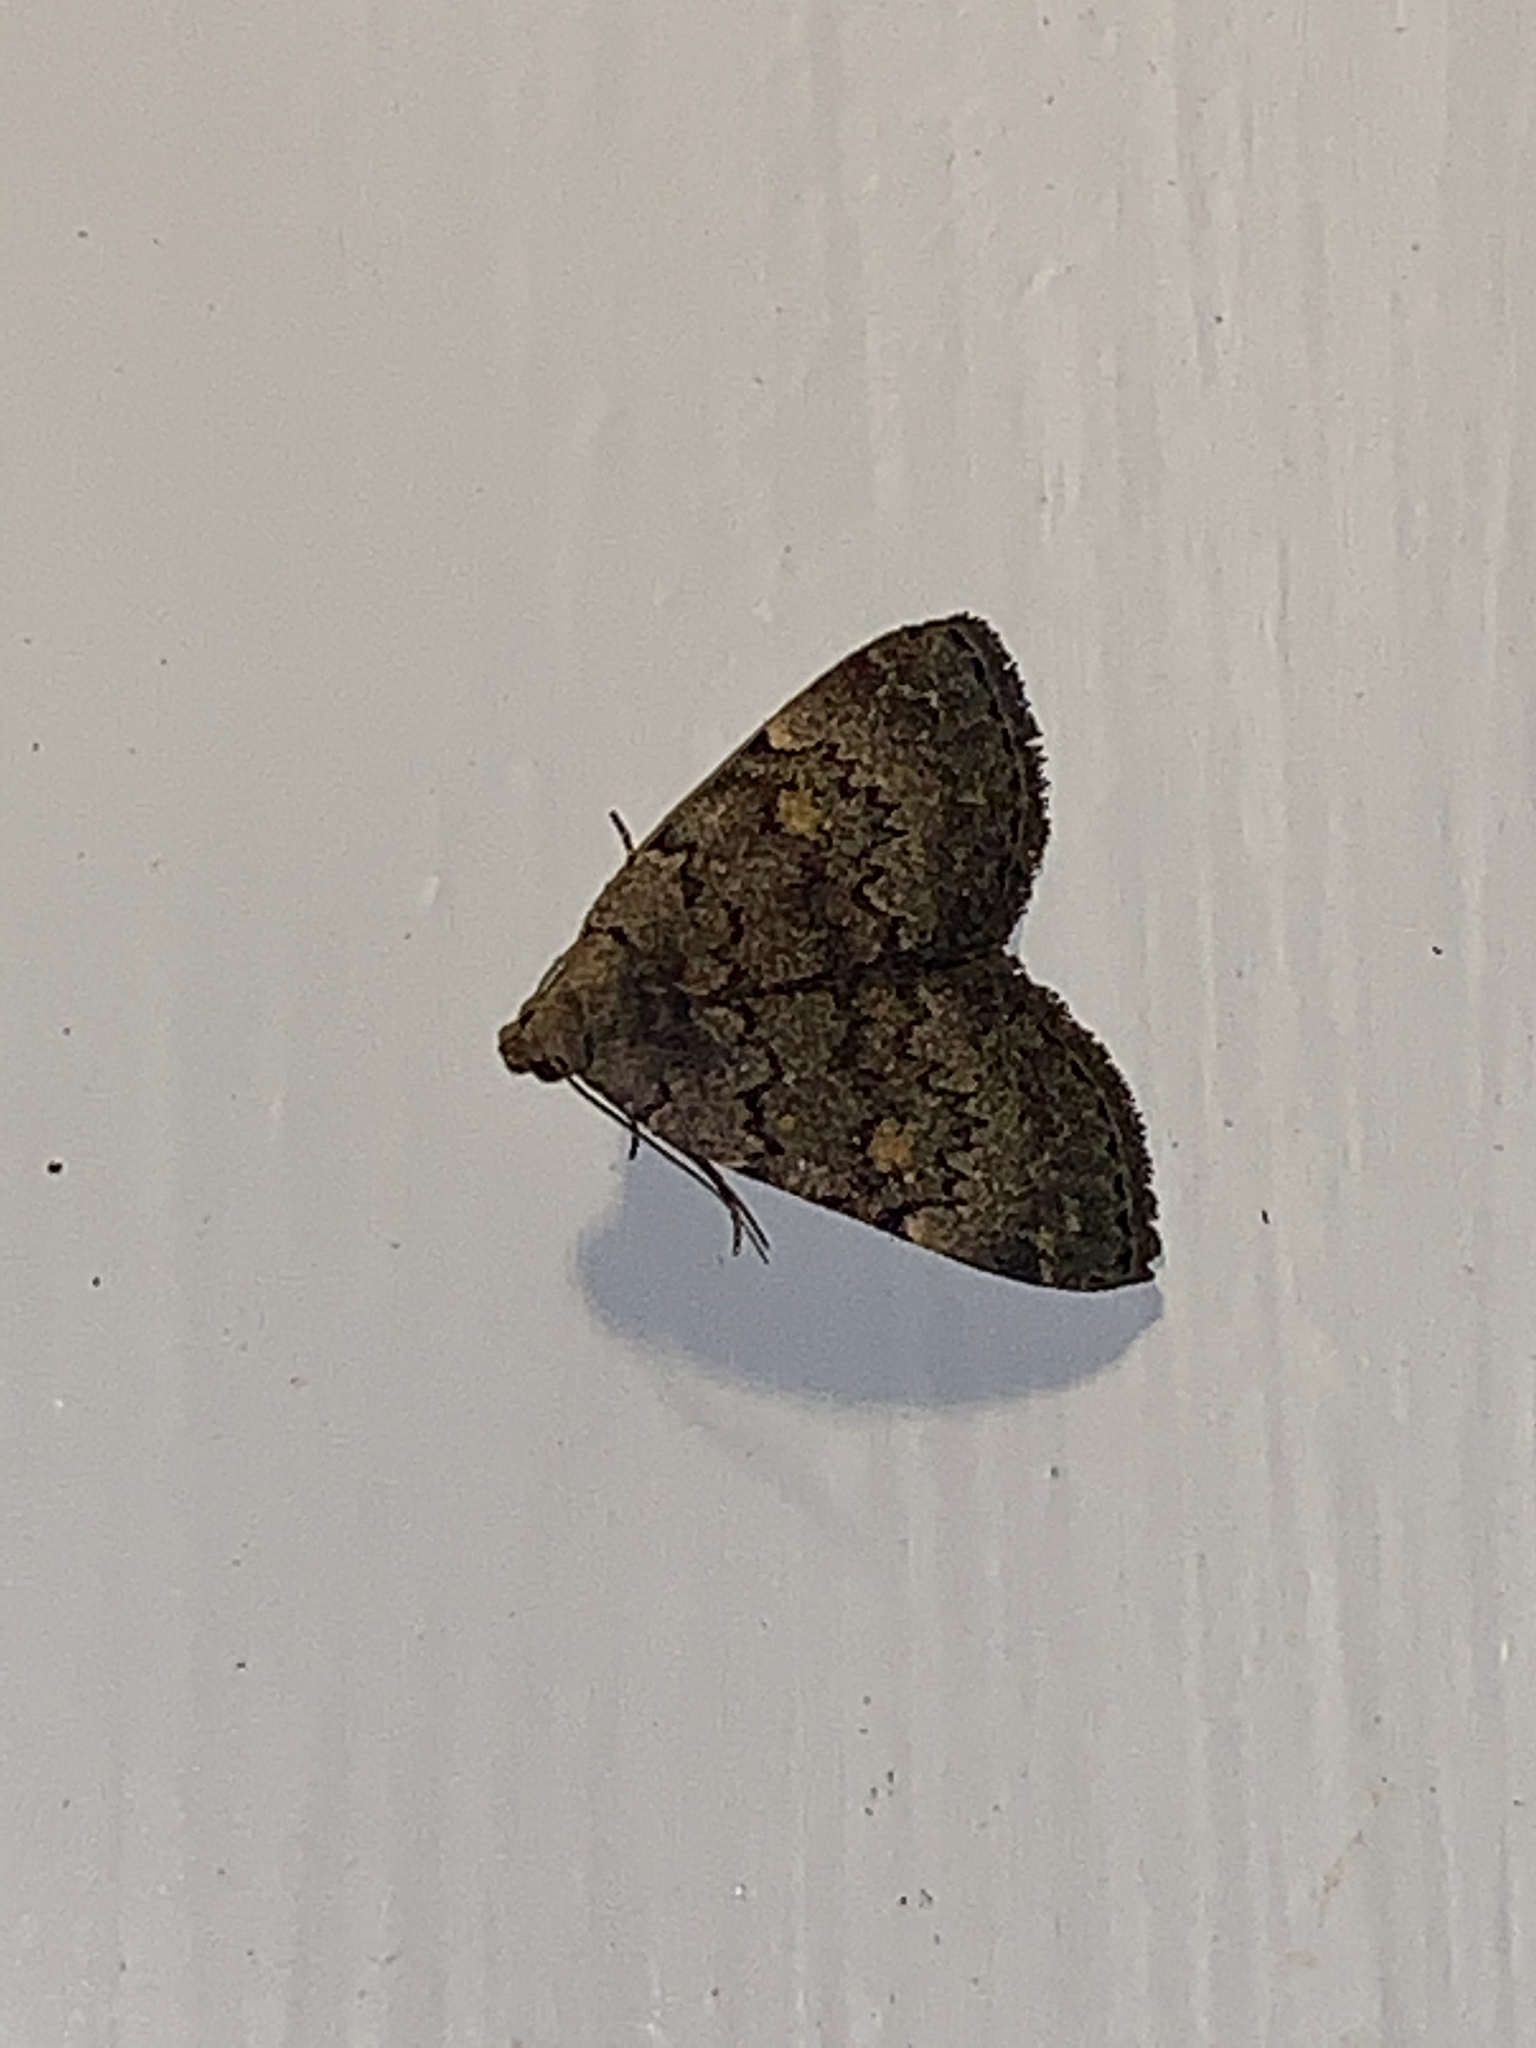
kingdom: Animalia
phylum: Arthropoda
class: Insecta
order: Lepidoptera
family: Erebidae
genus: Idia
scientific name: Idia aemula
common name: Common idia moth
